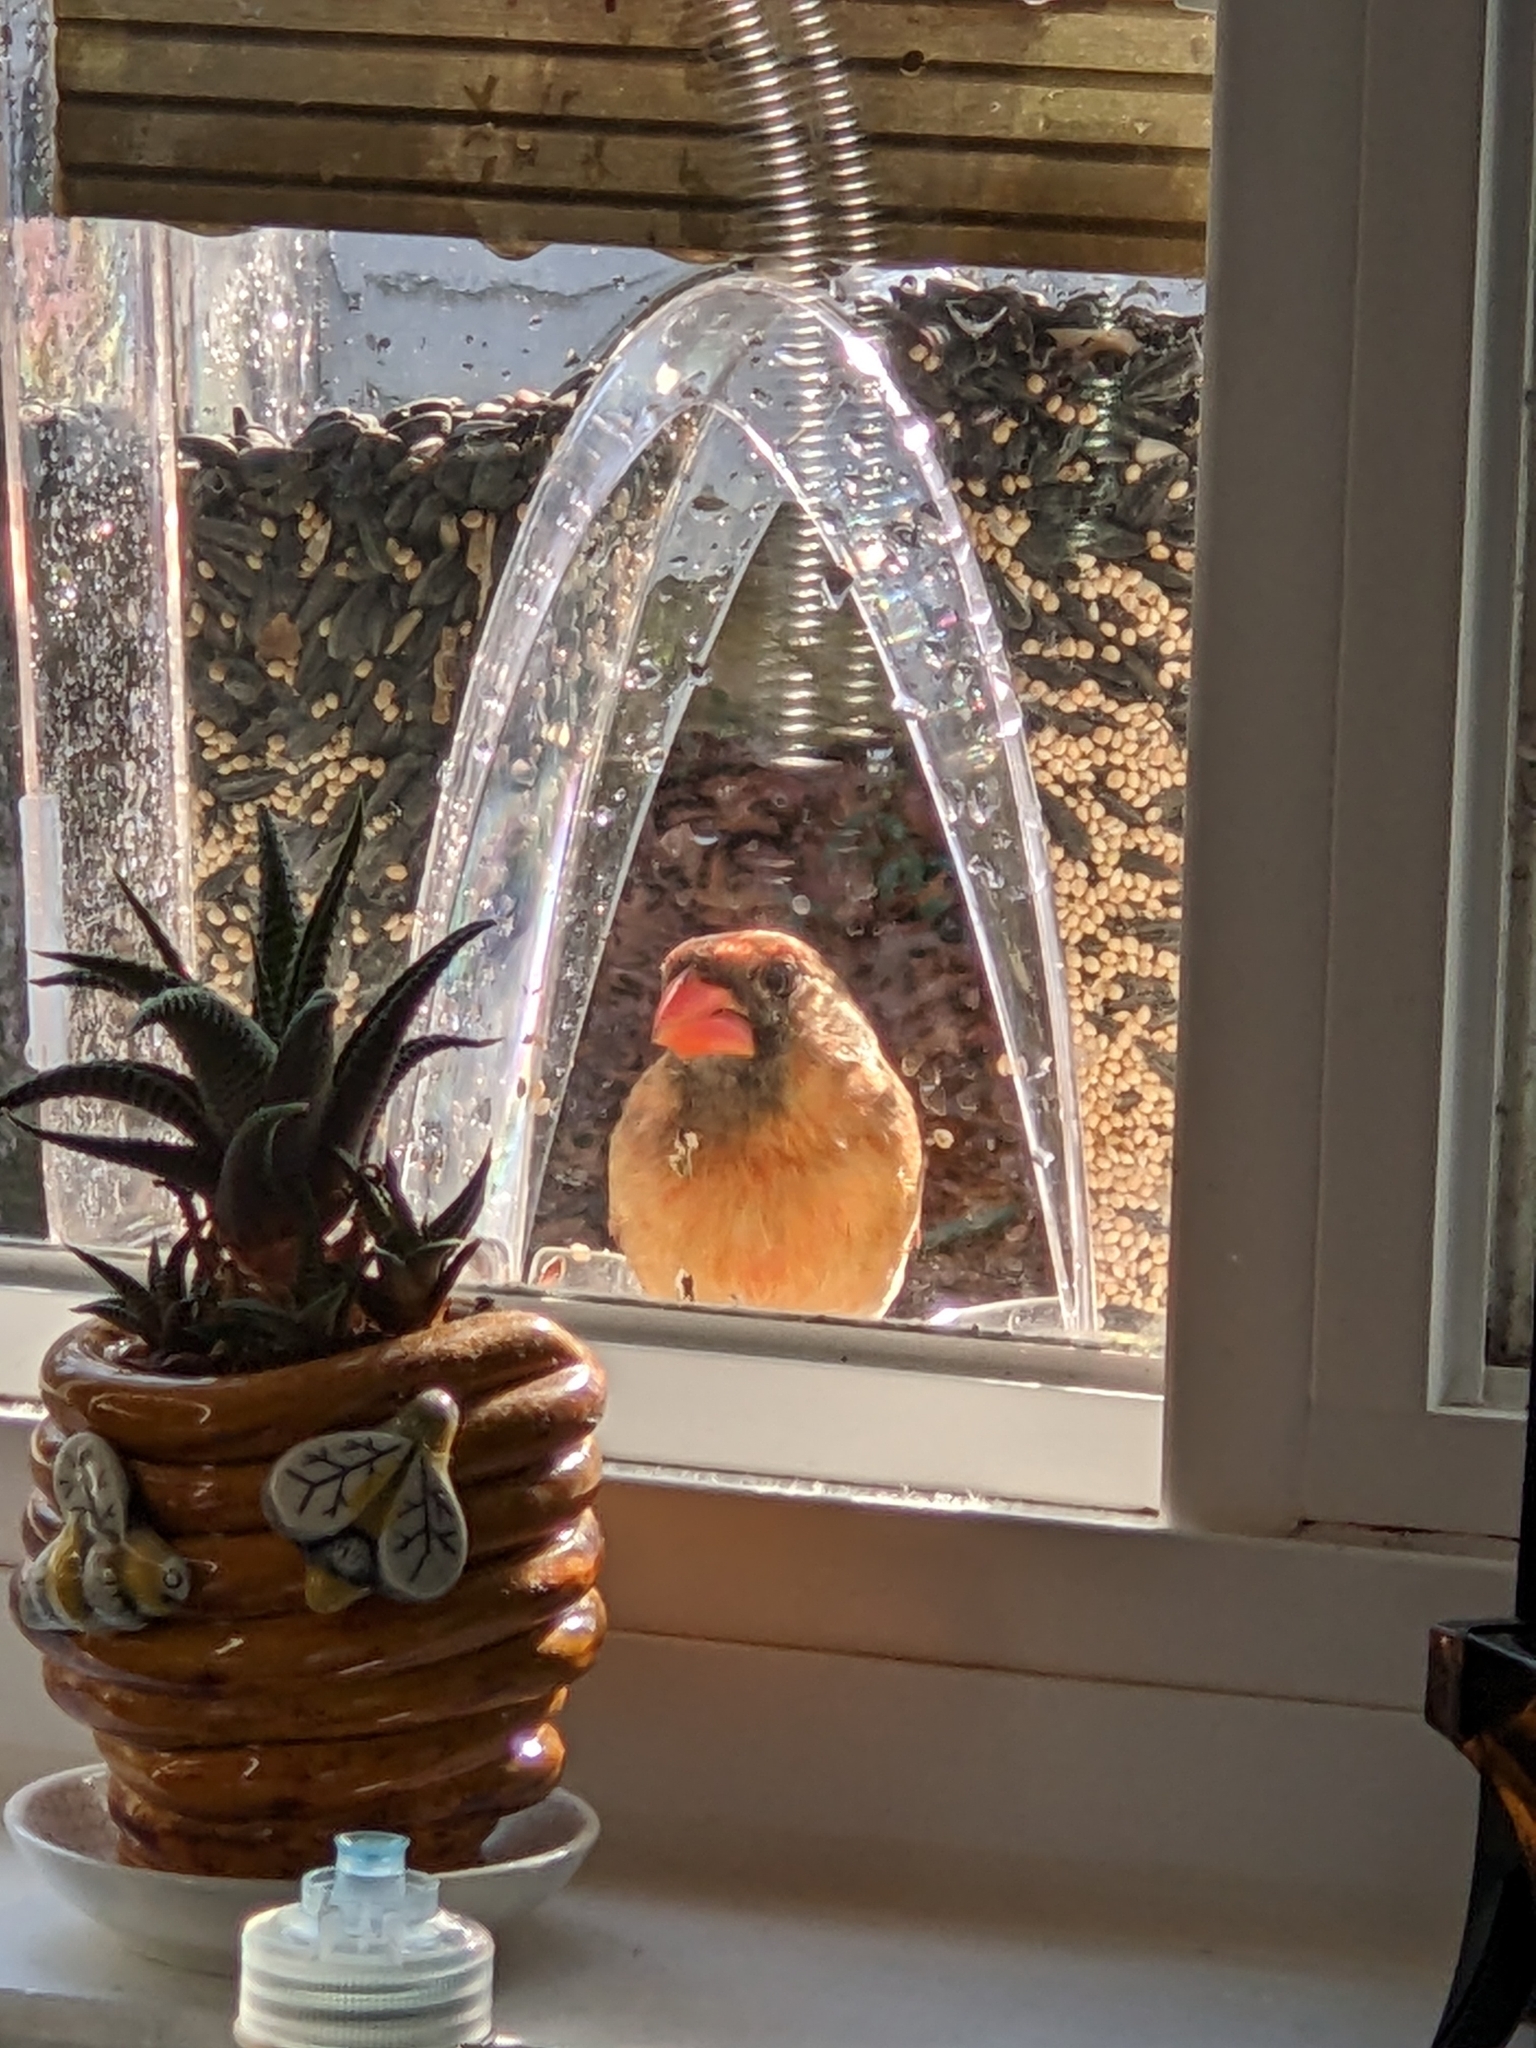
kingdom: Animalia
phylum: Chordata
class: Aves
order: Passeriformes
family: Cardinalidae
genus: Cardinalis
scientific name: Cardinalis cardinalis
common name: Northern cardinal
